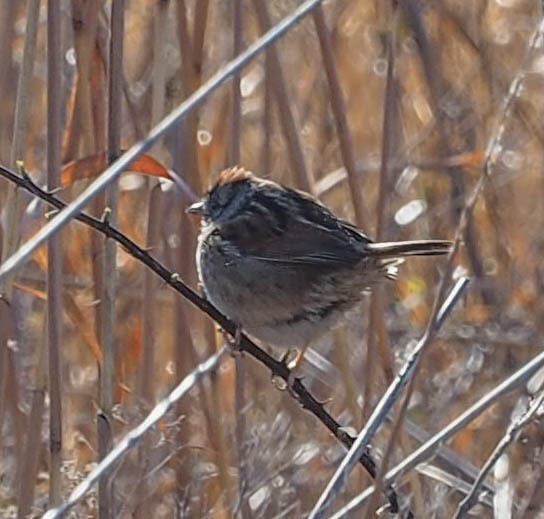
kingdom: Animalia
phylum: Chordata
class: Aves
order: Passeriformes
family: Passerellidae
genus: Melospiza
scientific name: Melospiza georgiana
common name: Swamp sparrow
